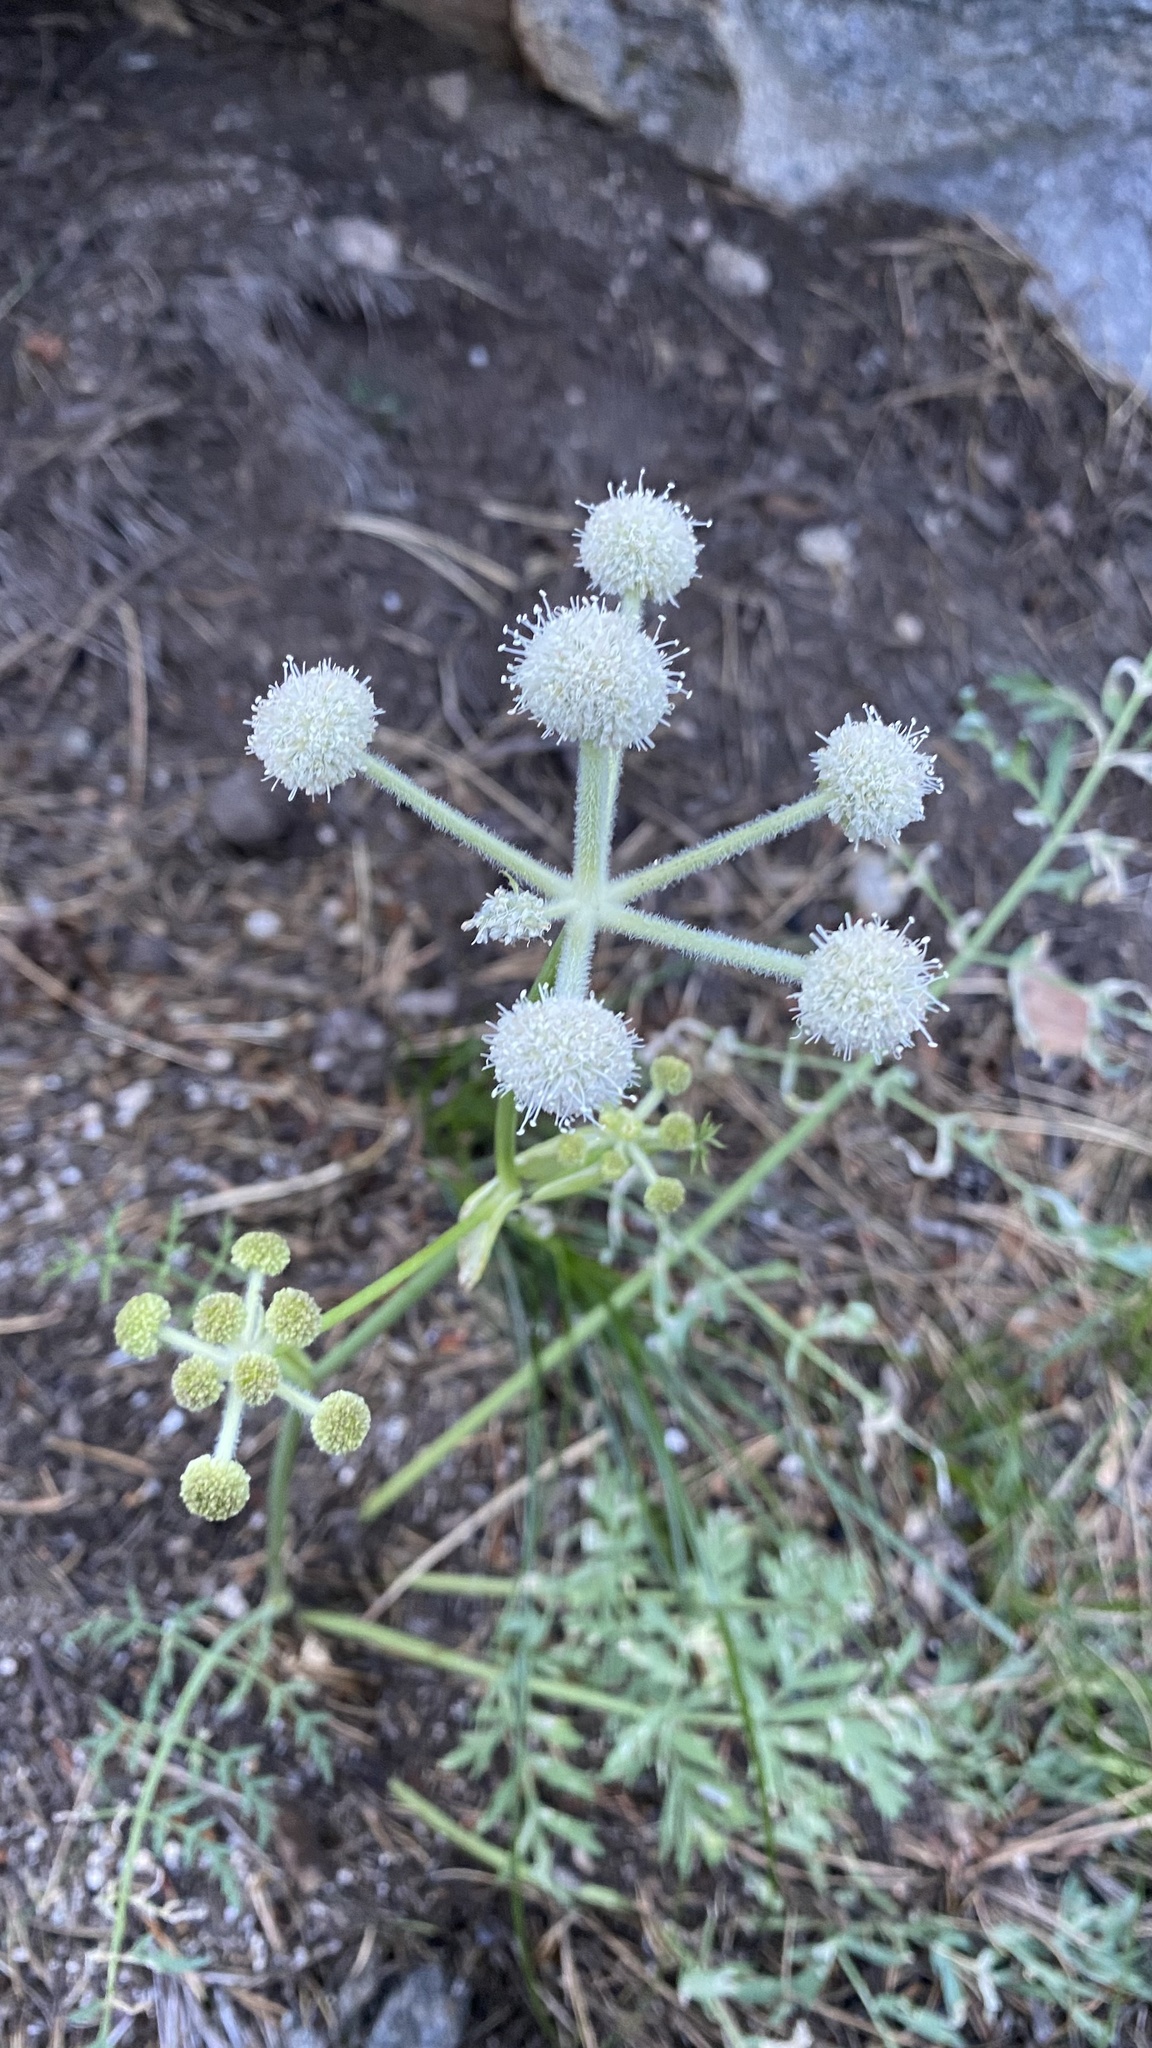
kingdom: Plantae
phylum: Tracheophyta
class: Magnoliopsida
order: Apiales
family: Apiaceae
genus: Angelica
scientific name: Angelica capitellata
